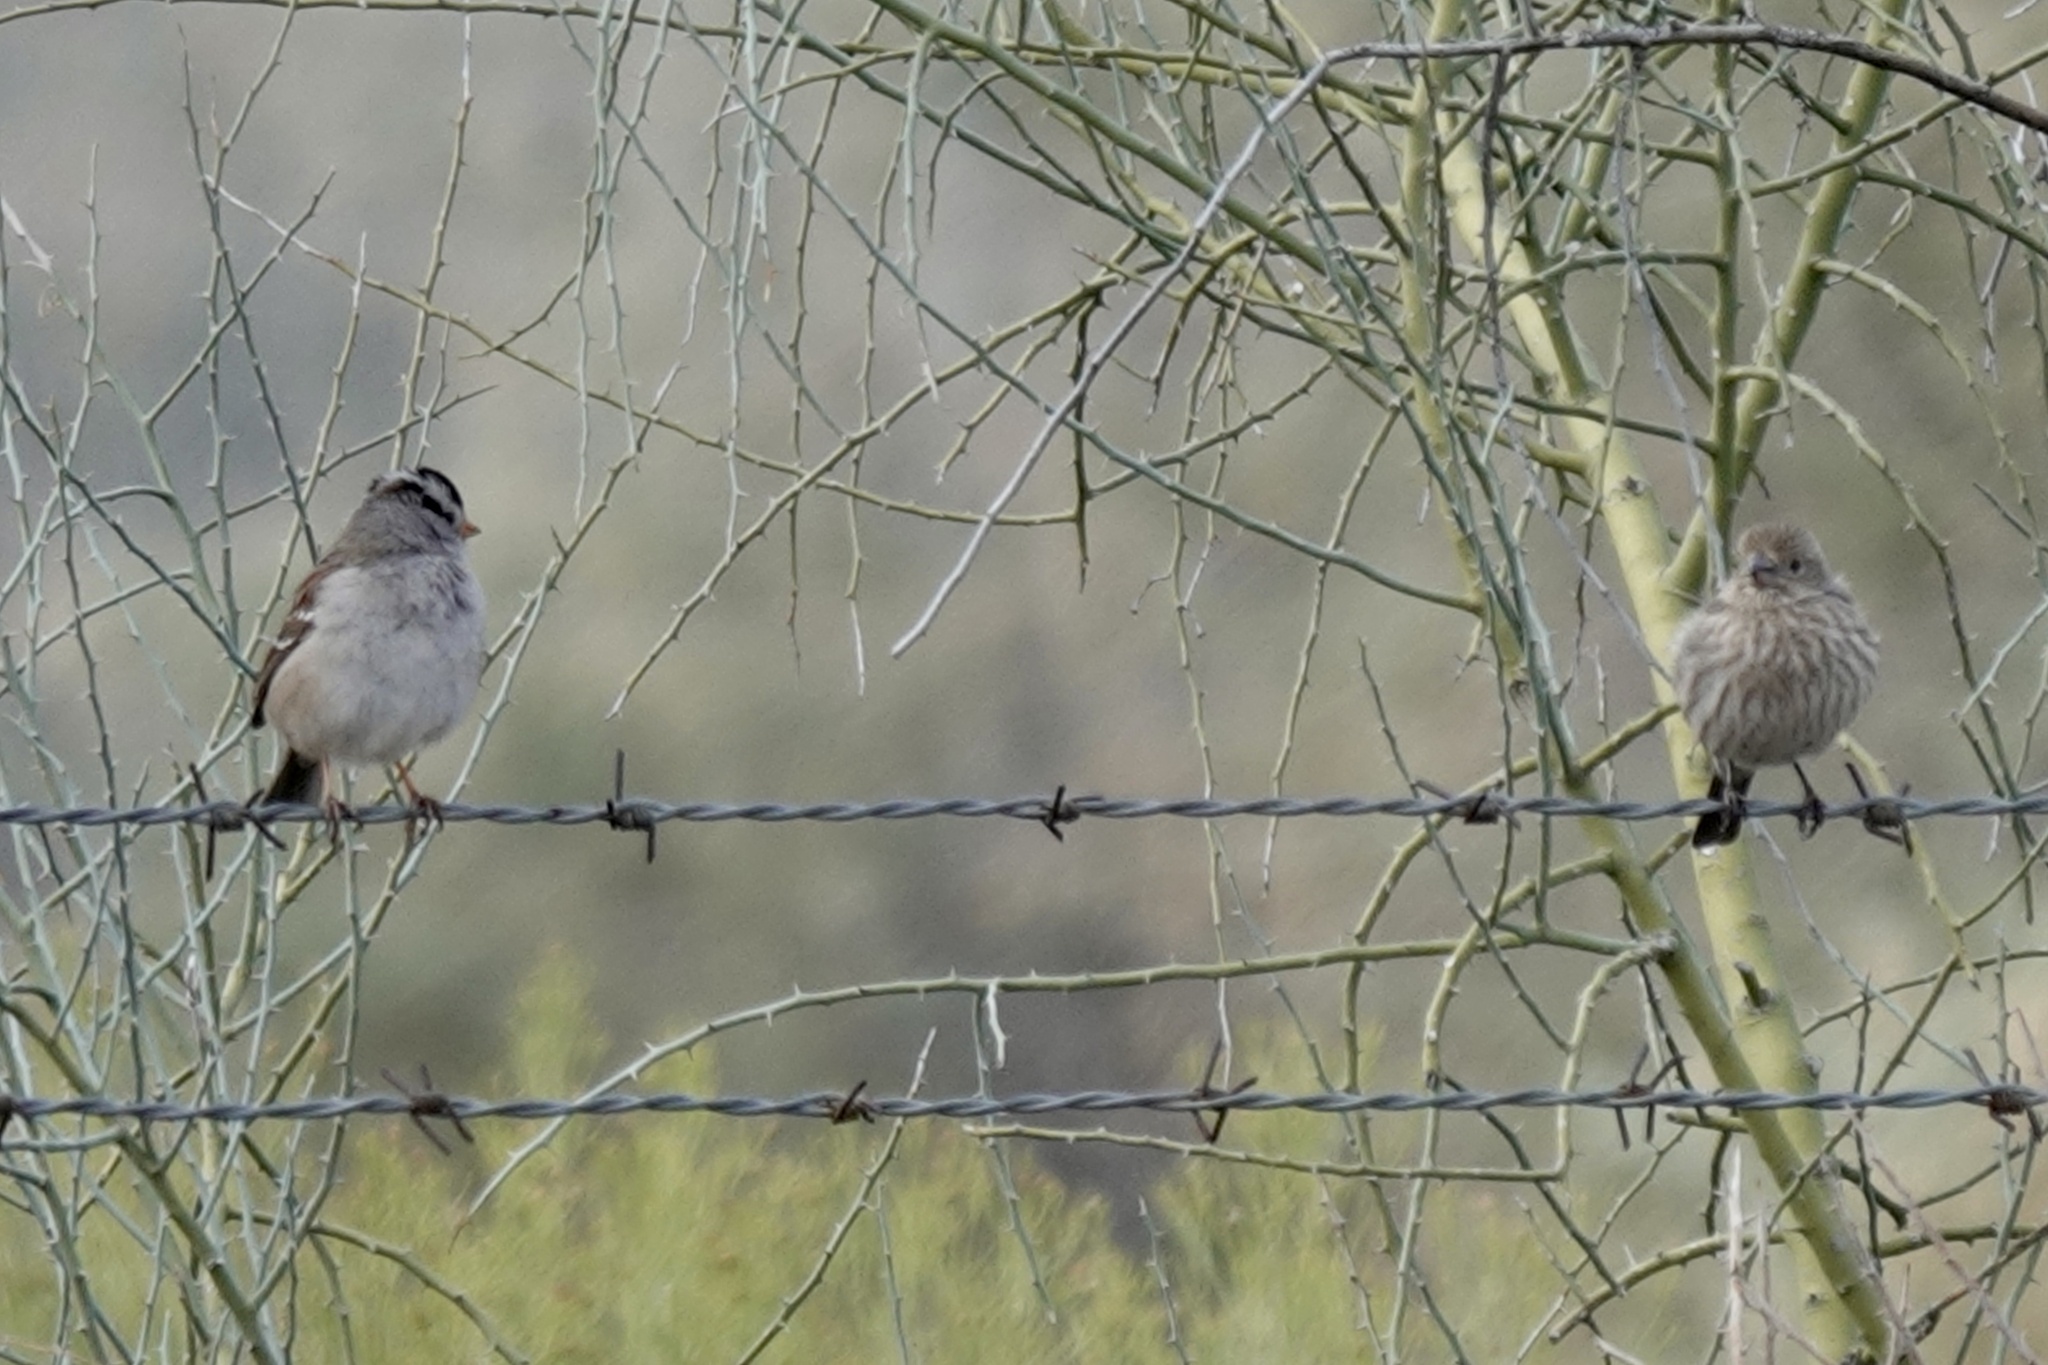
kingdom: Animalia
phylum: Chordata
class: Aves
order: Passeriformes
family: Passerellidae
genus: Zonotrichia
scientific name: Zonotrichia leucophrys
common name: White-crowned sparrow
